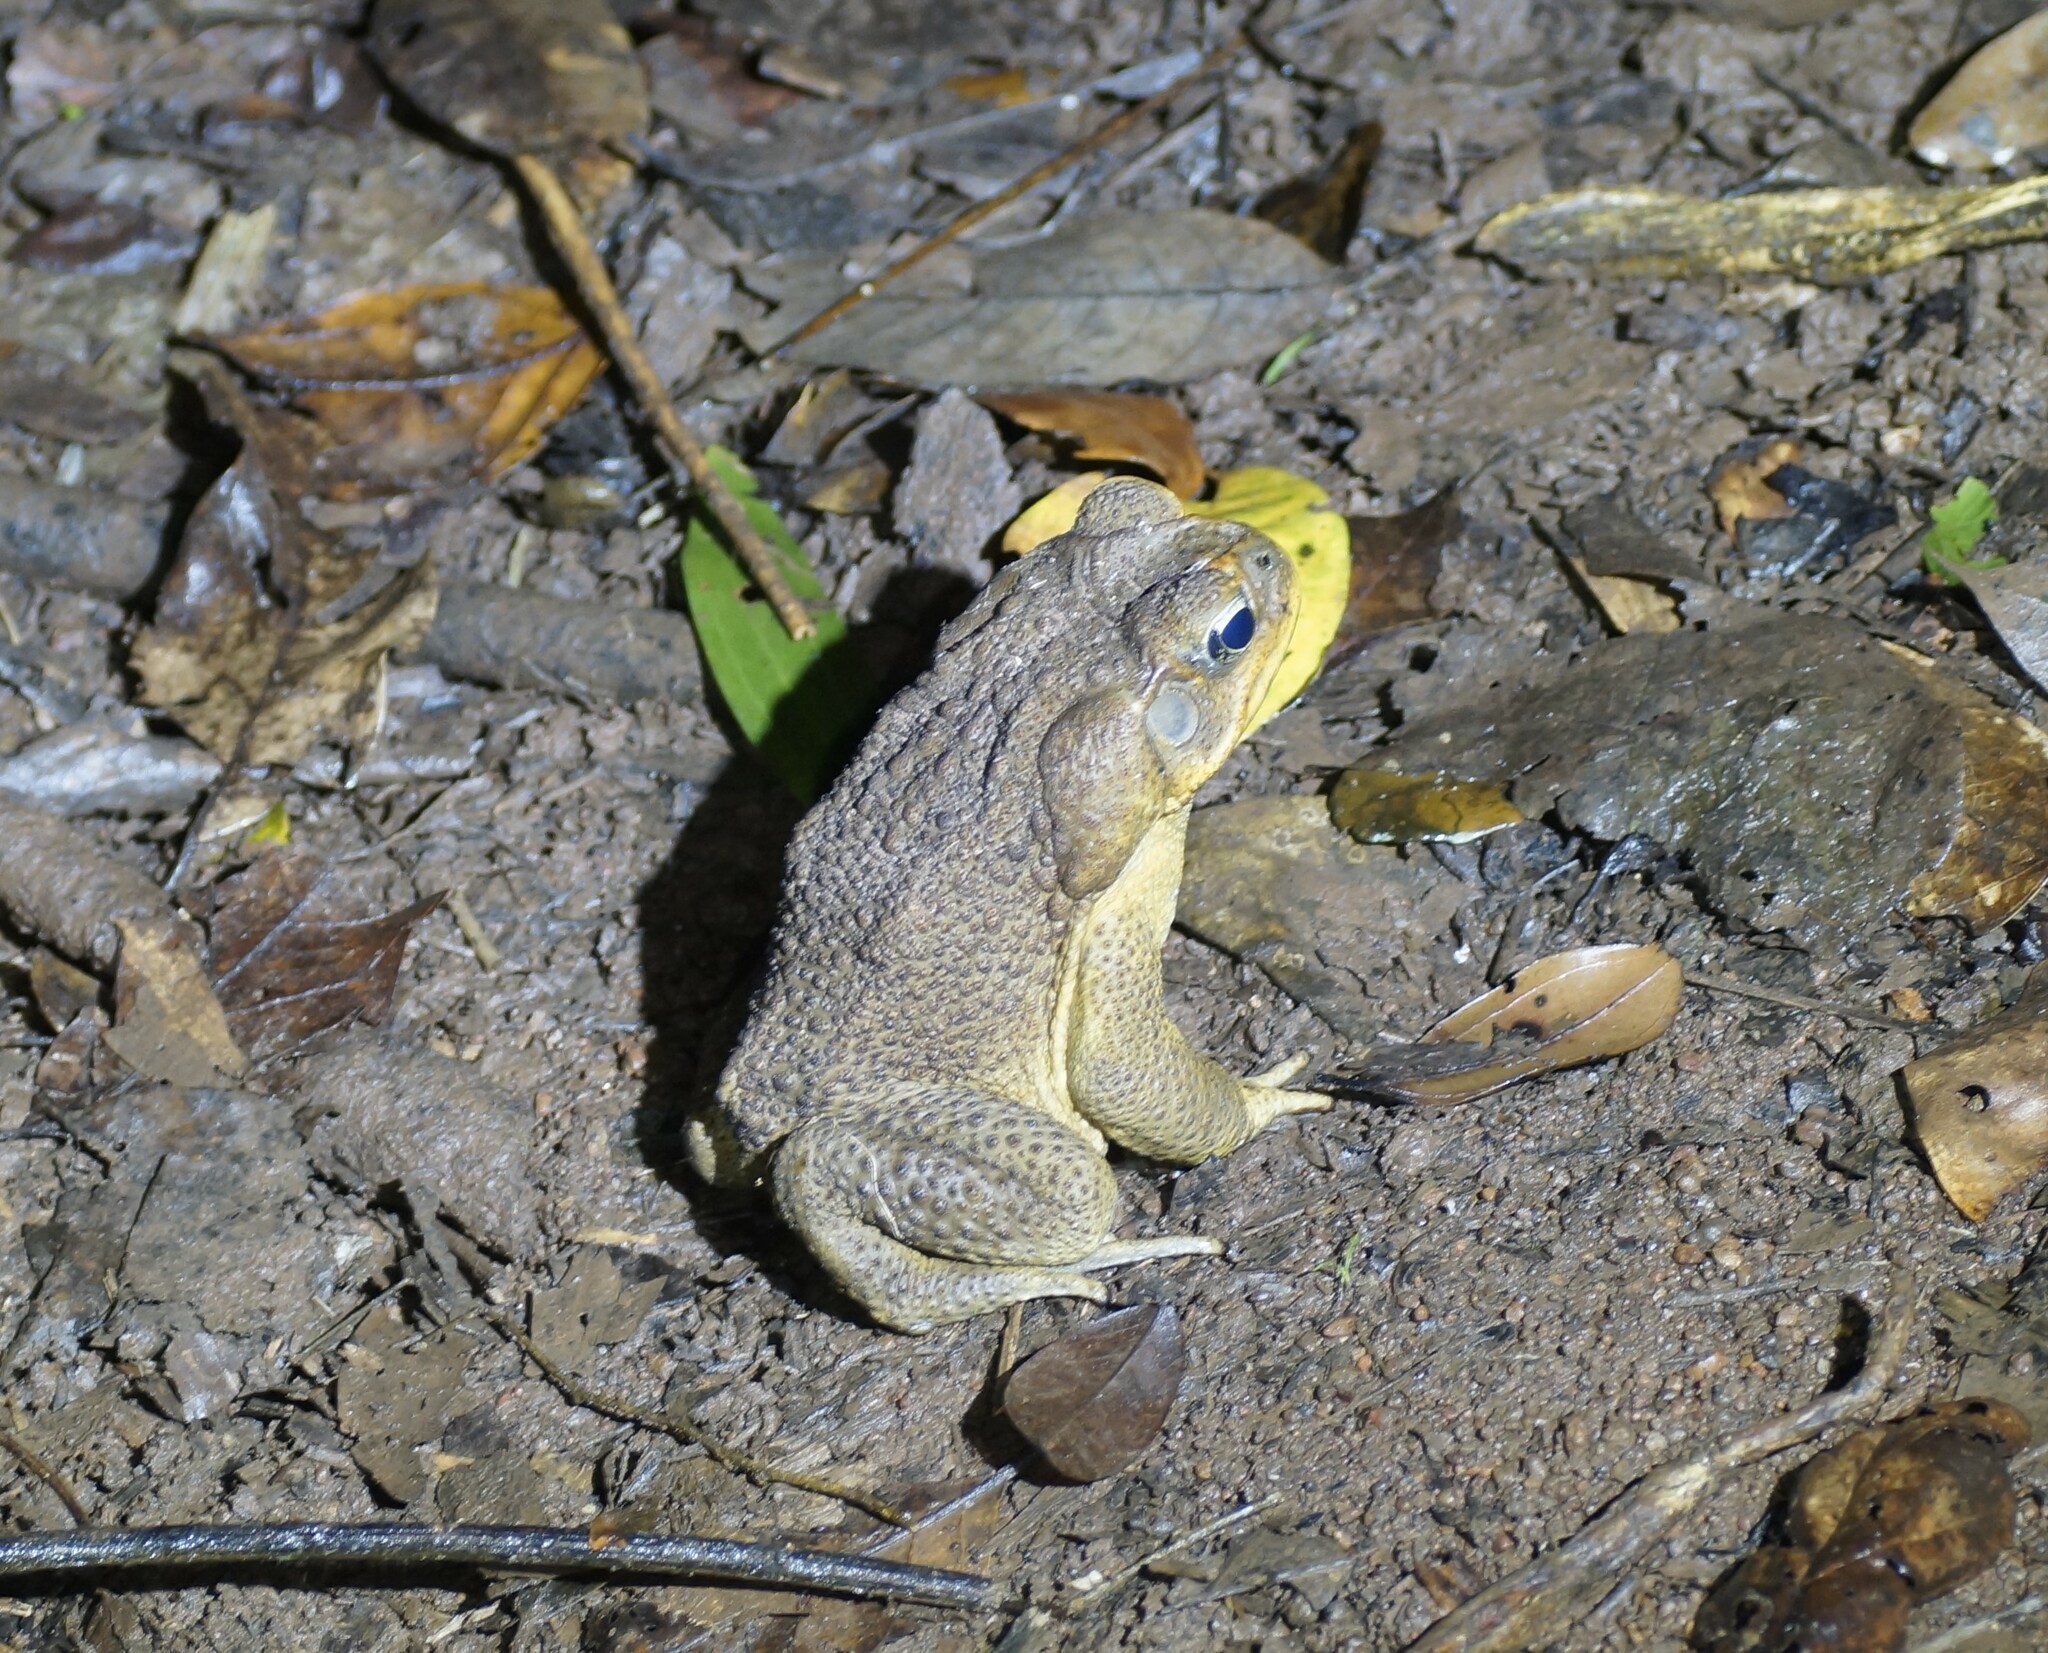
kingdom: Animalia
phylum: Chordata
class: Amphibia
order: Anura
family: Bufonidae
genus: Rhinella
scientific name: Rhinella marina
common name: Cane toad
